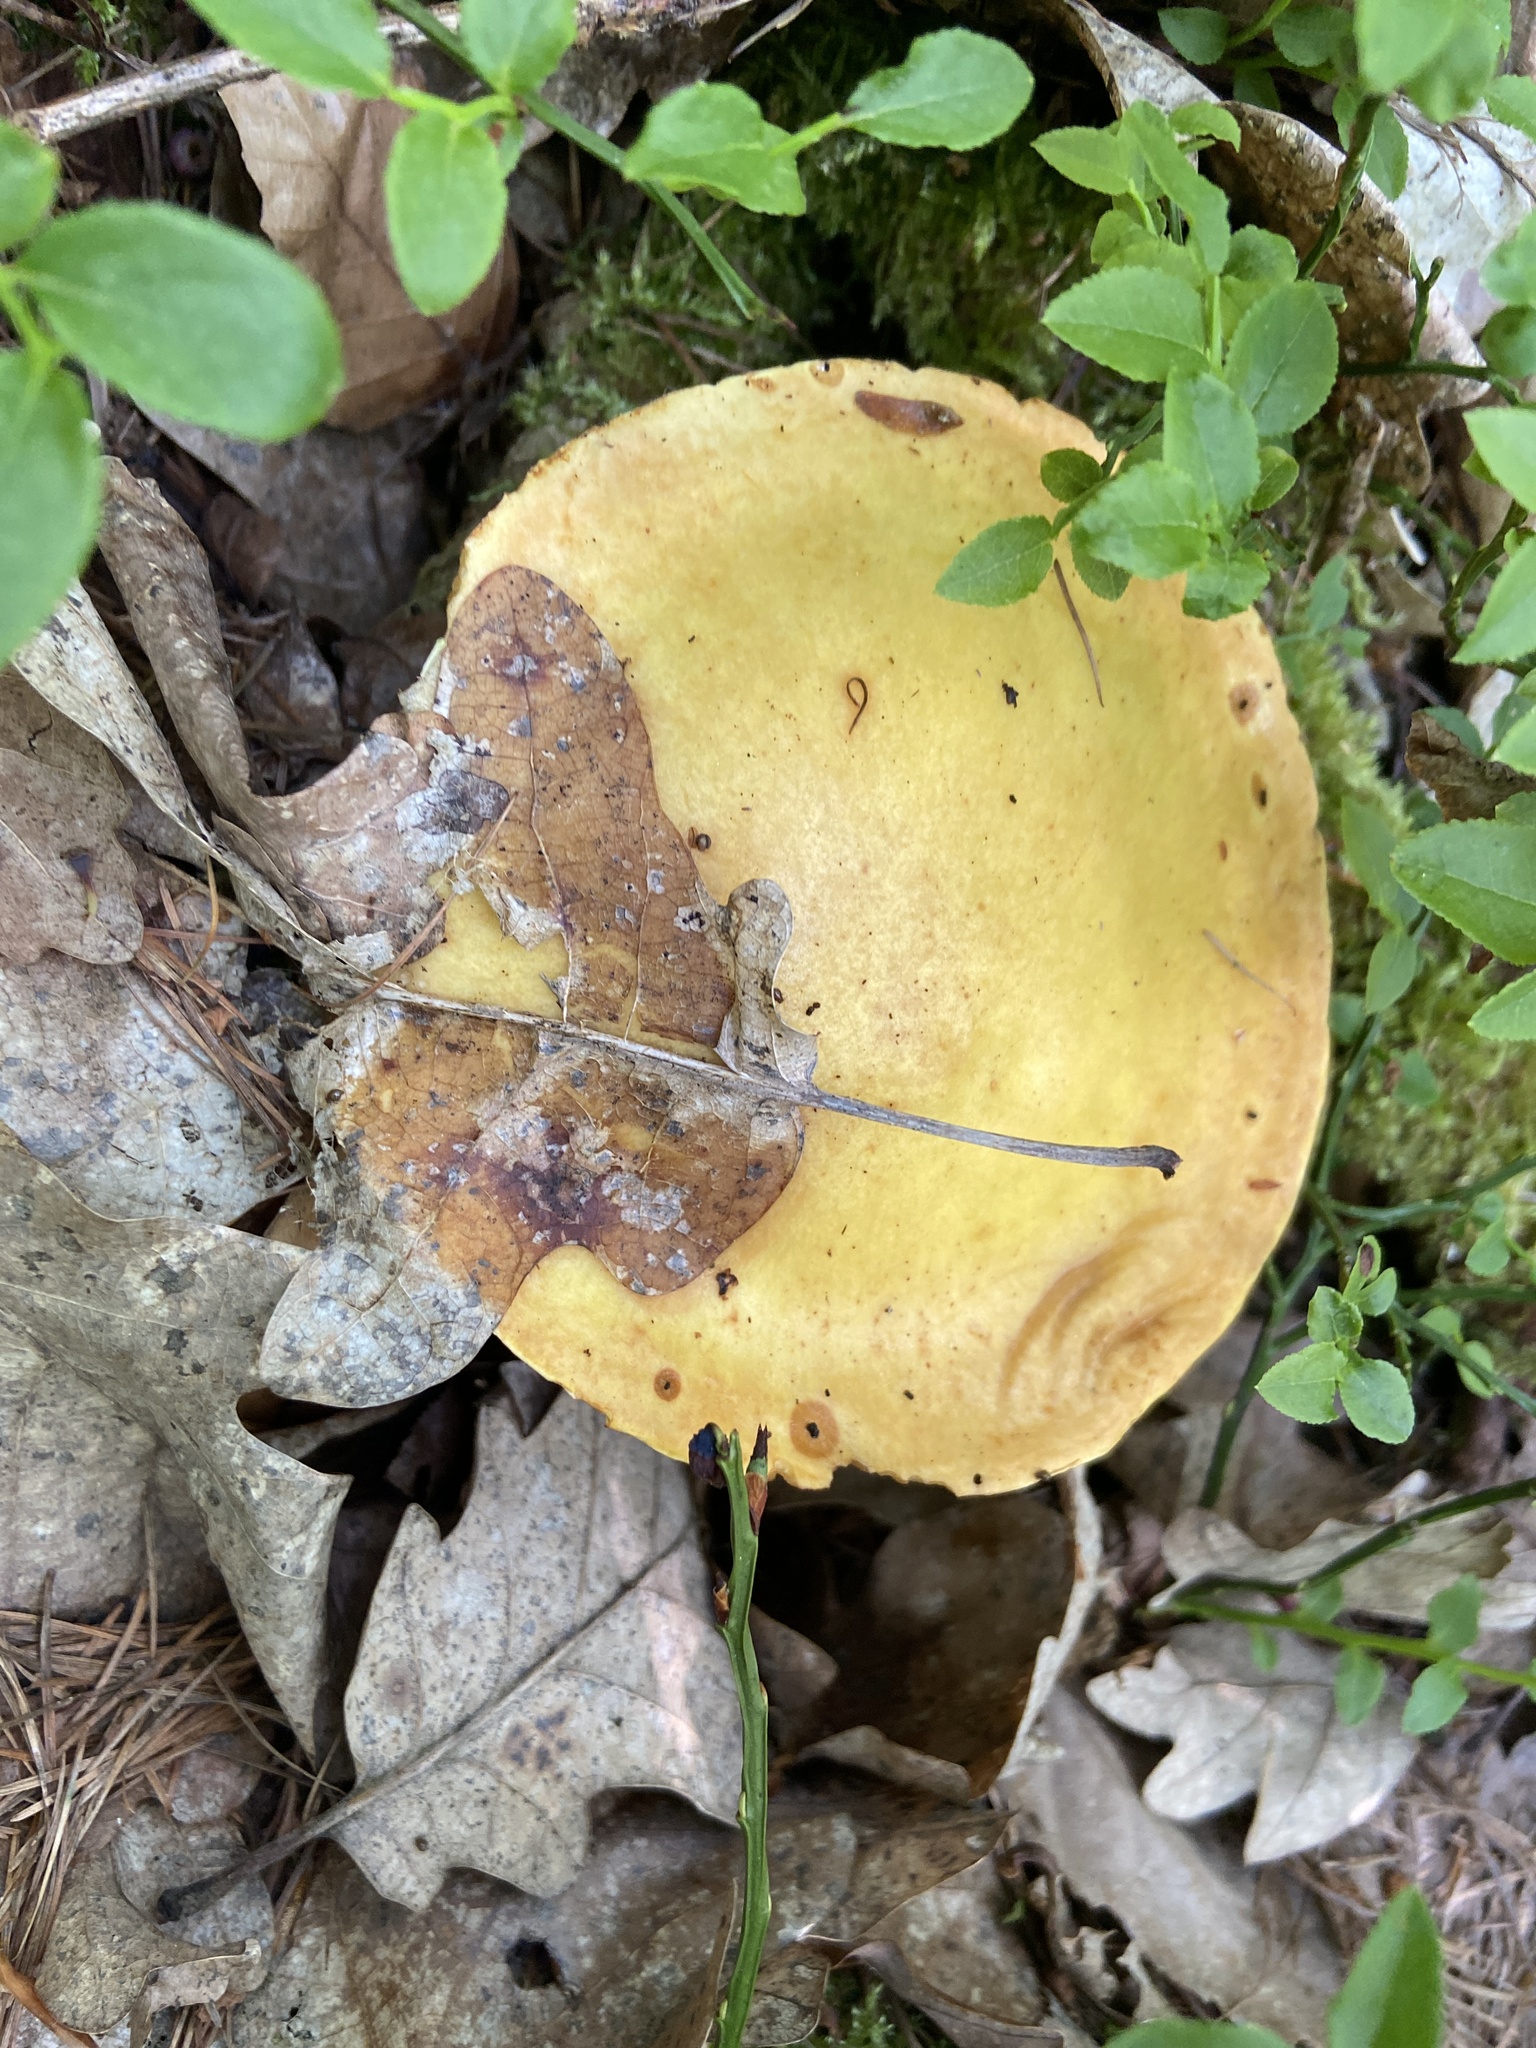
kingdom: Fungi
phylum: Basidiomycota
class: Agaricomycetes
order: Boletales
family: Suillaceae
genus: Suillus
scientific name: Suillus grevillei
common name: Larch bolete
